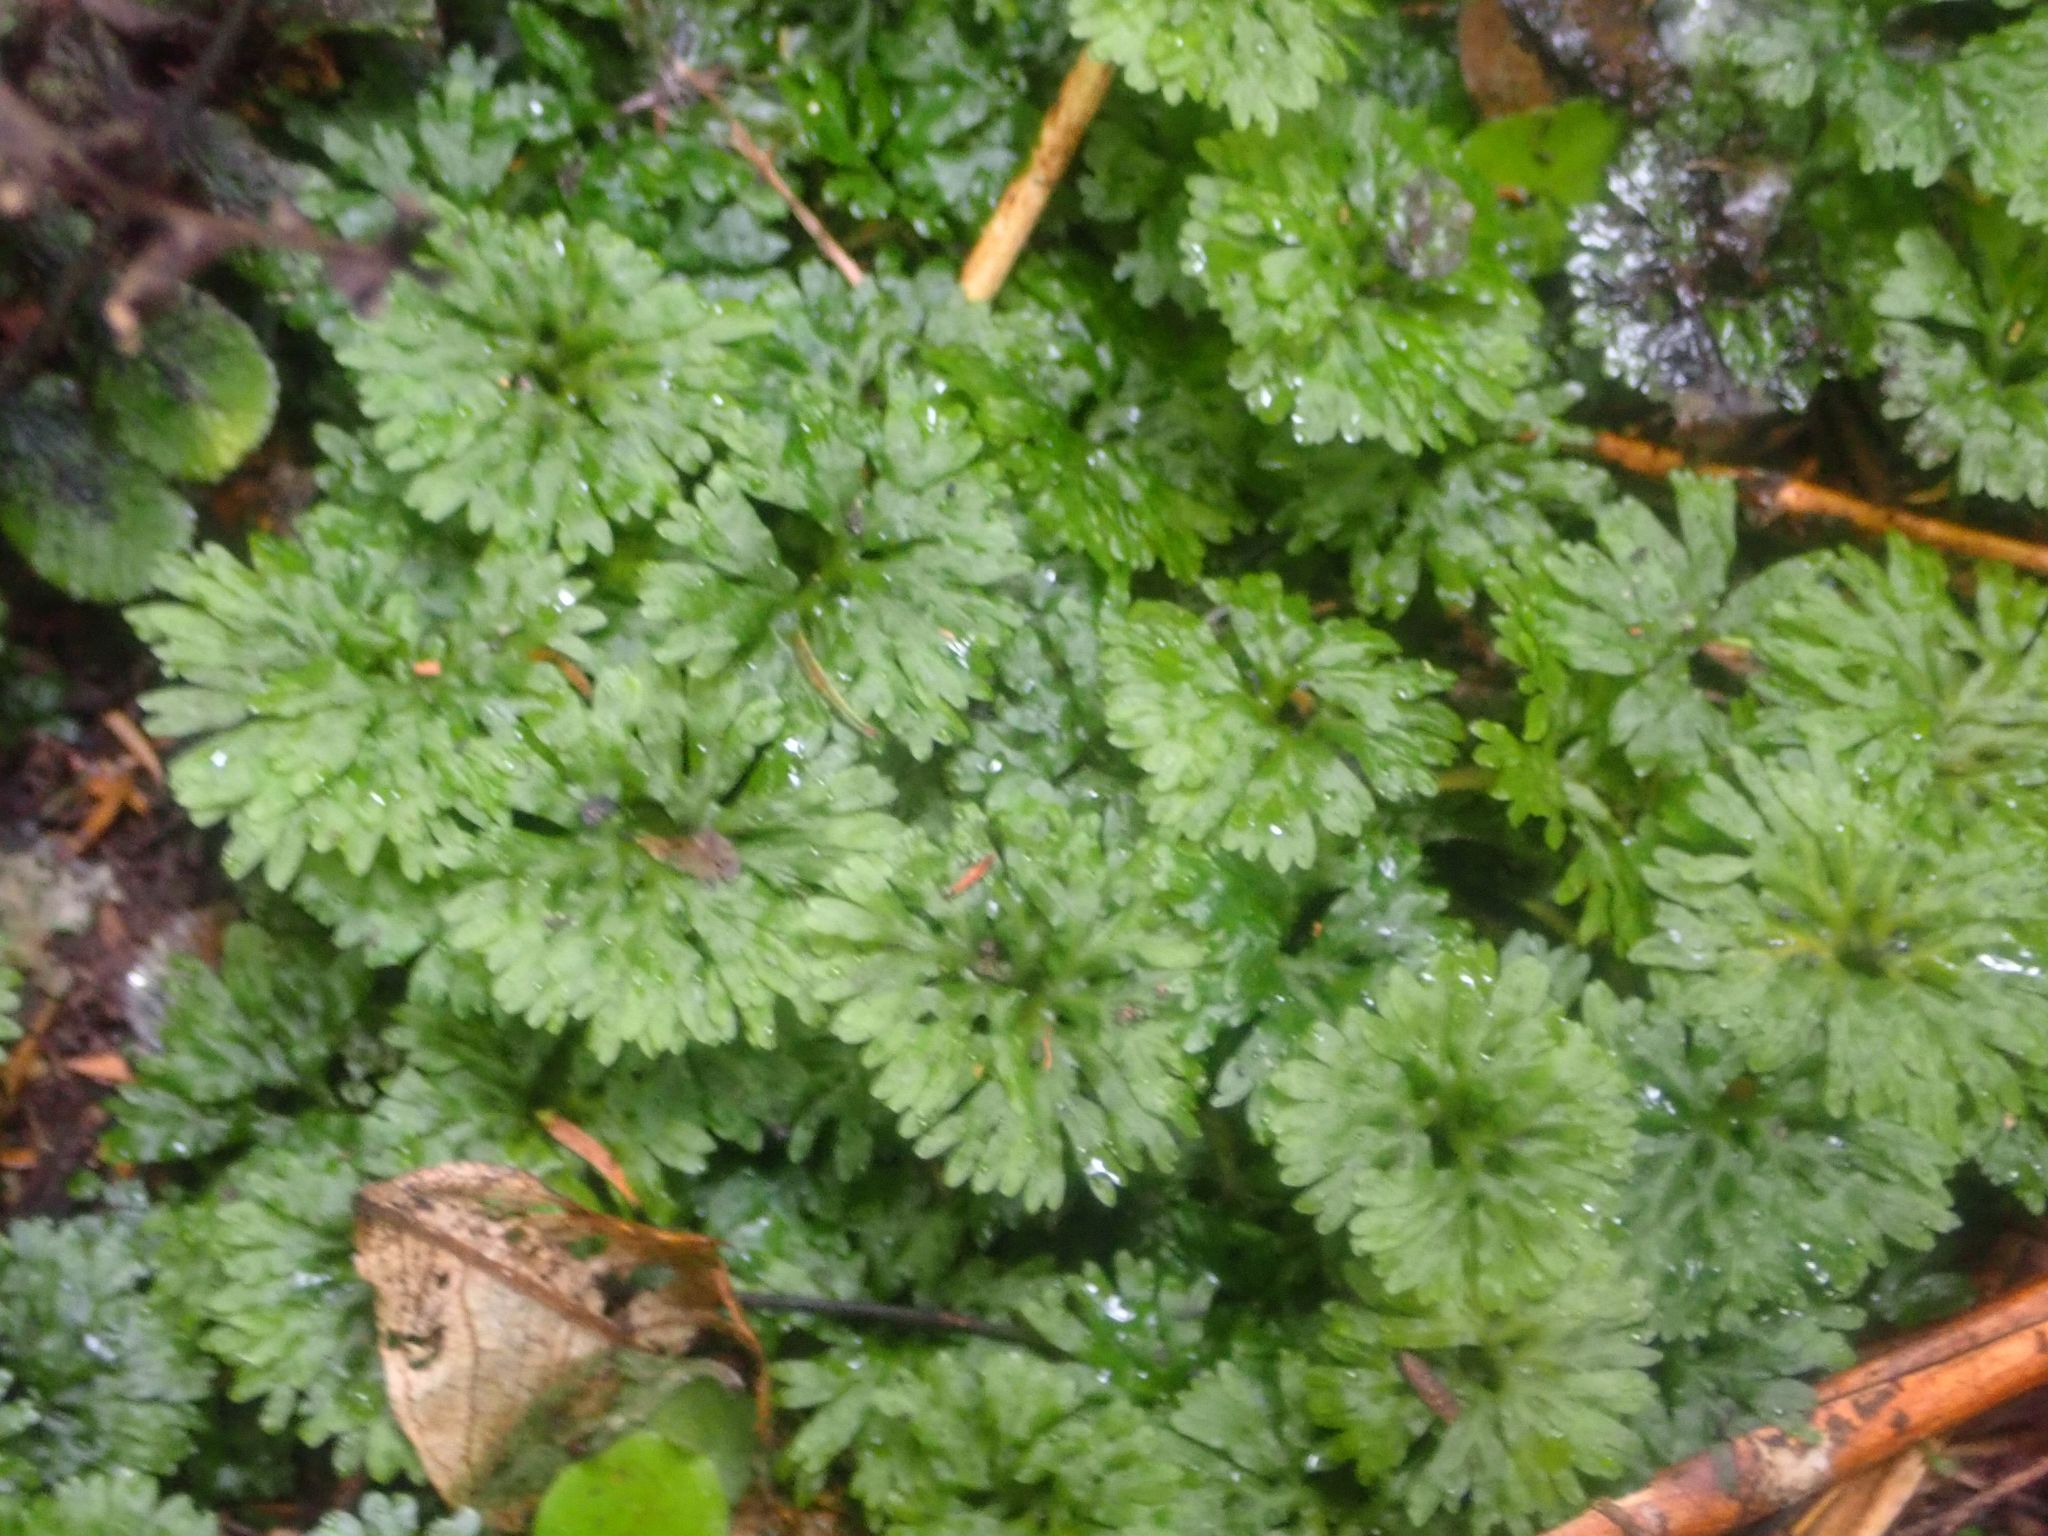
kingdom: Plantae
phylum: Marchantiophyta
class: Jungermanniopsida
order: Pallaviciniales
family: Hymenophytaceae
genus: Hymenophyton
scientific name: Hymenophyton flabellatum
